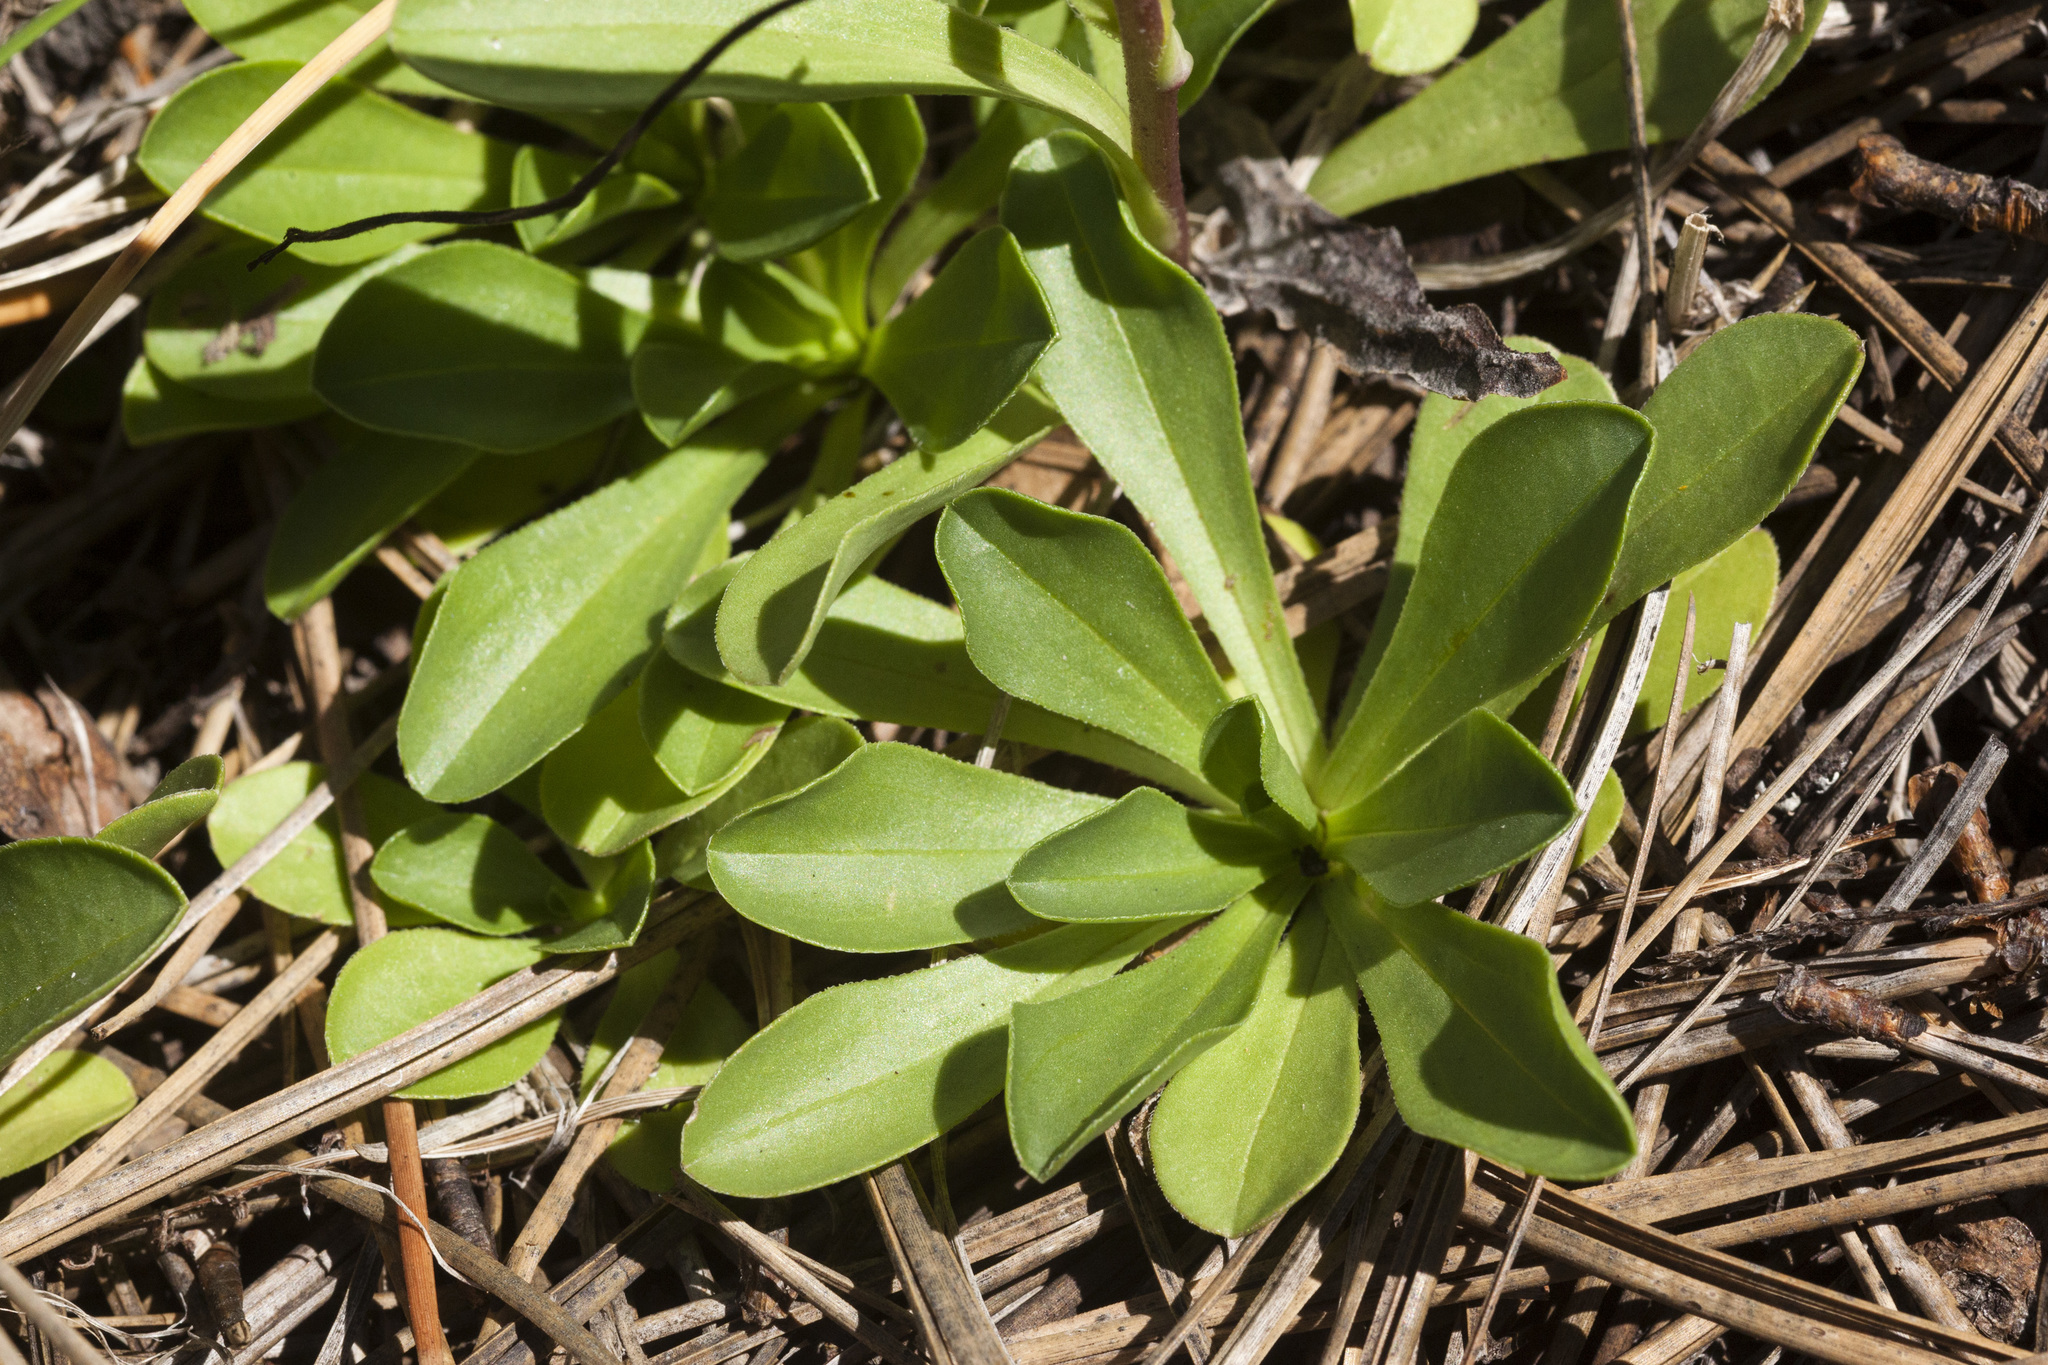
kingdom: Plantae
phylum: Tracheophyta
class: Magnoliopsida
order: Asterales
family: Asteraceae
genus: Townsendia
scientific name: Townsendia formosa
